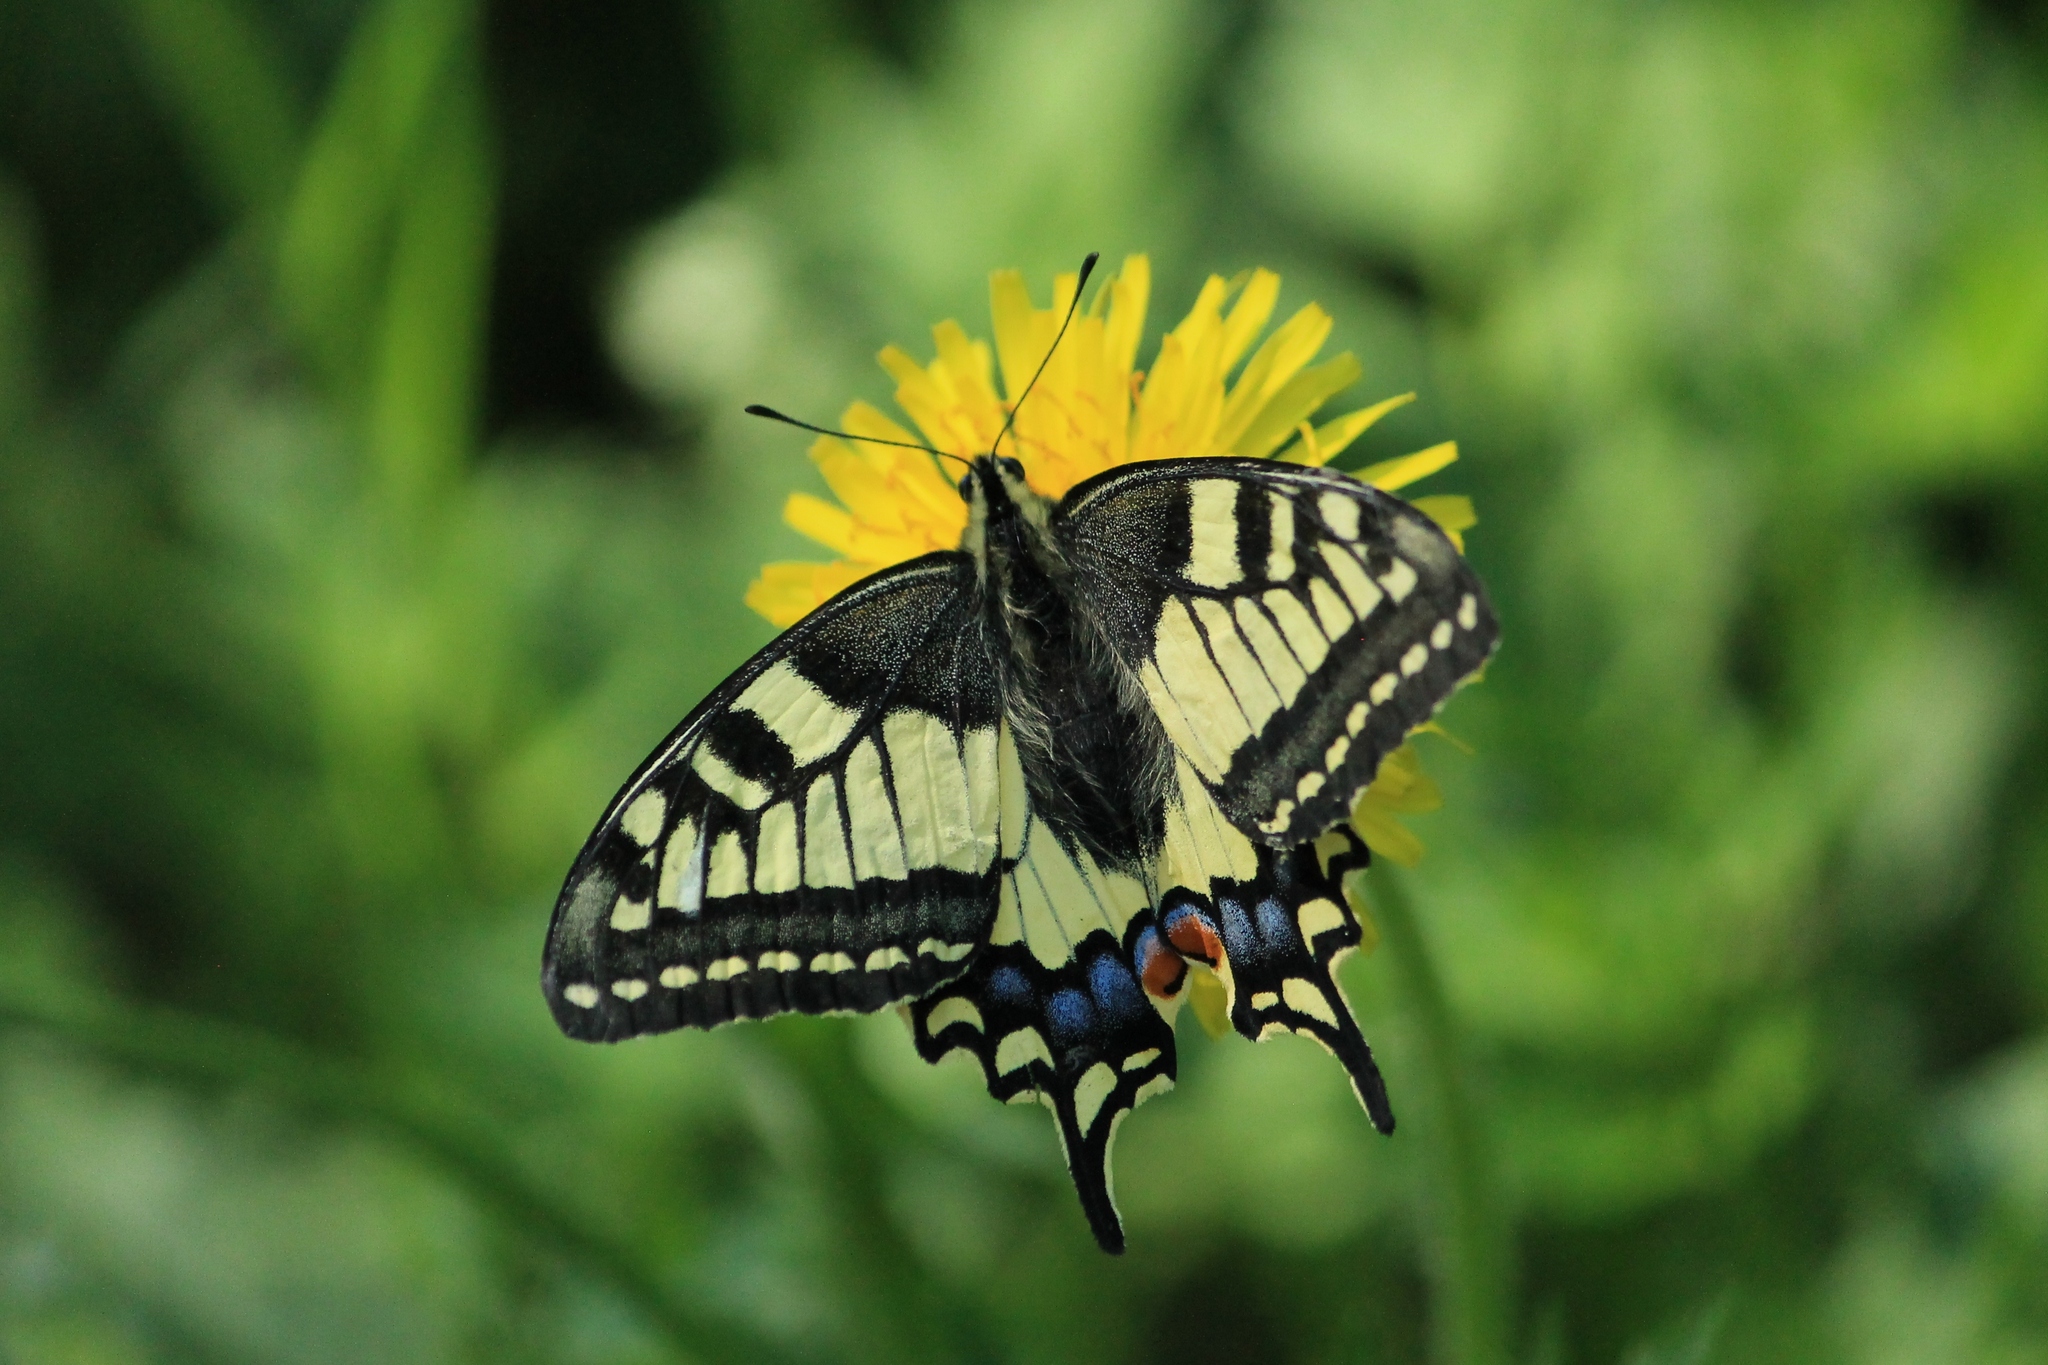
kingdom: Animalia
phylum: Arthropoda
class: Insecta
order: Lepidoptera
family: Papilionidae
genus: Papilio
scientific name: Papilio machaon
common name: Swallowtail
